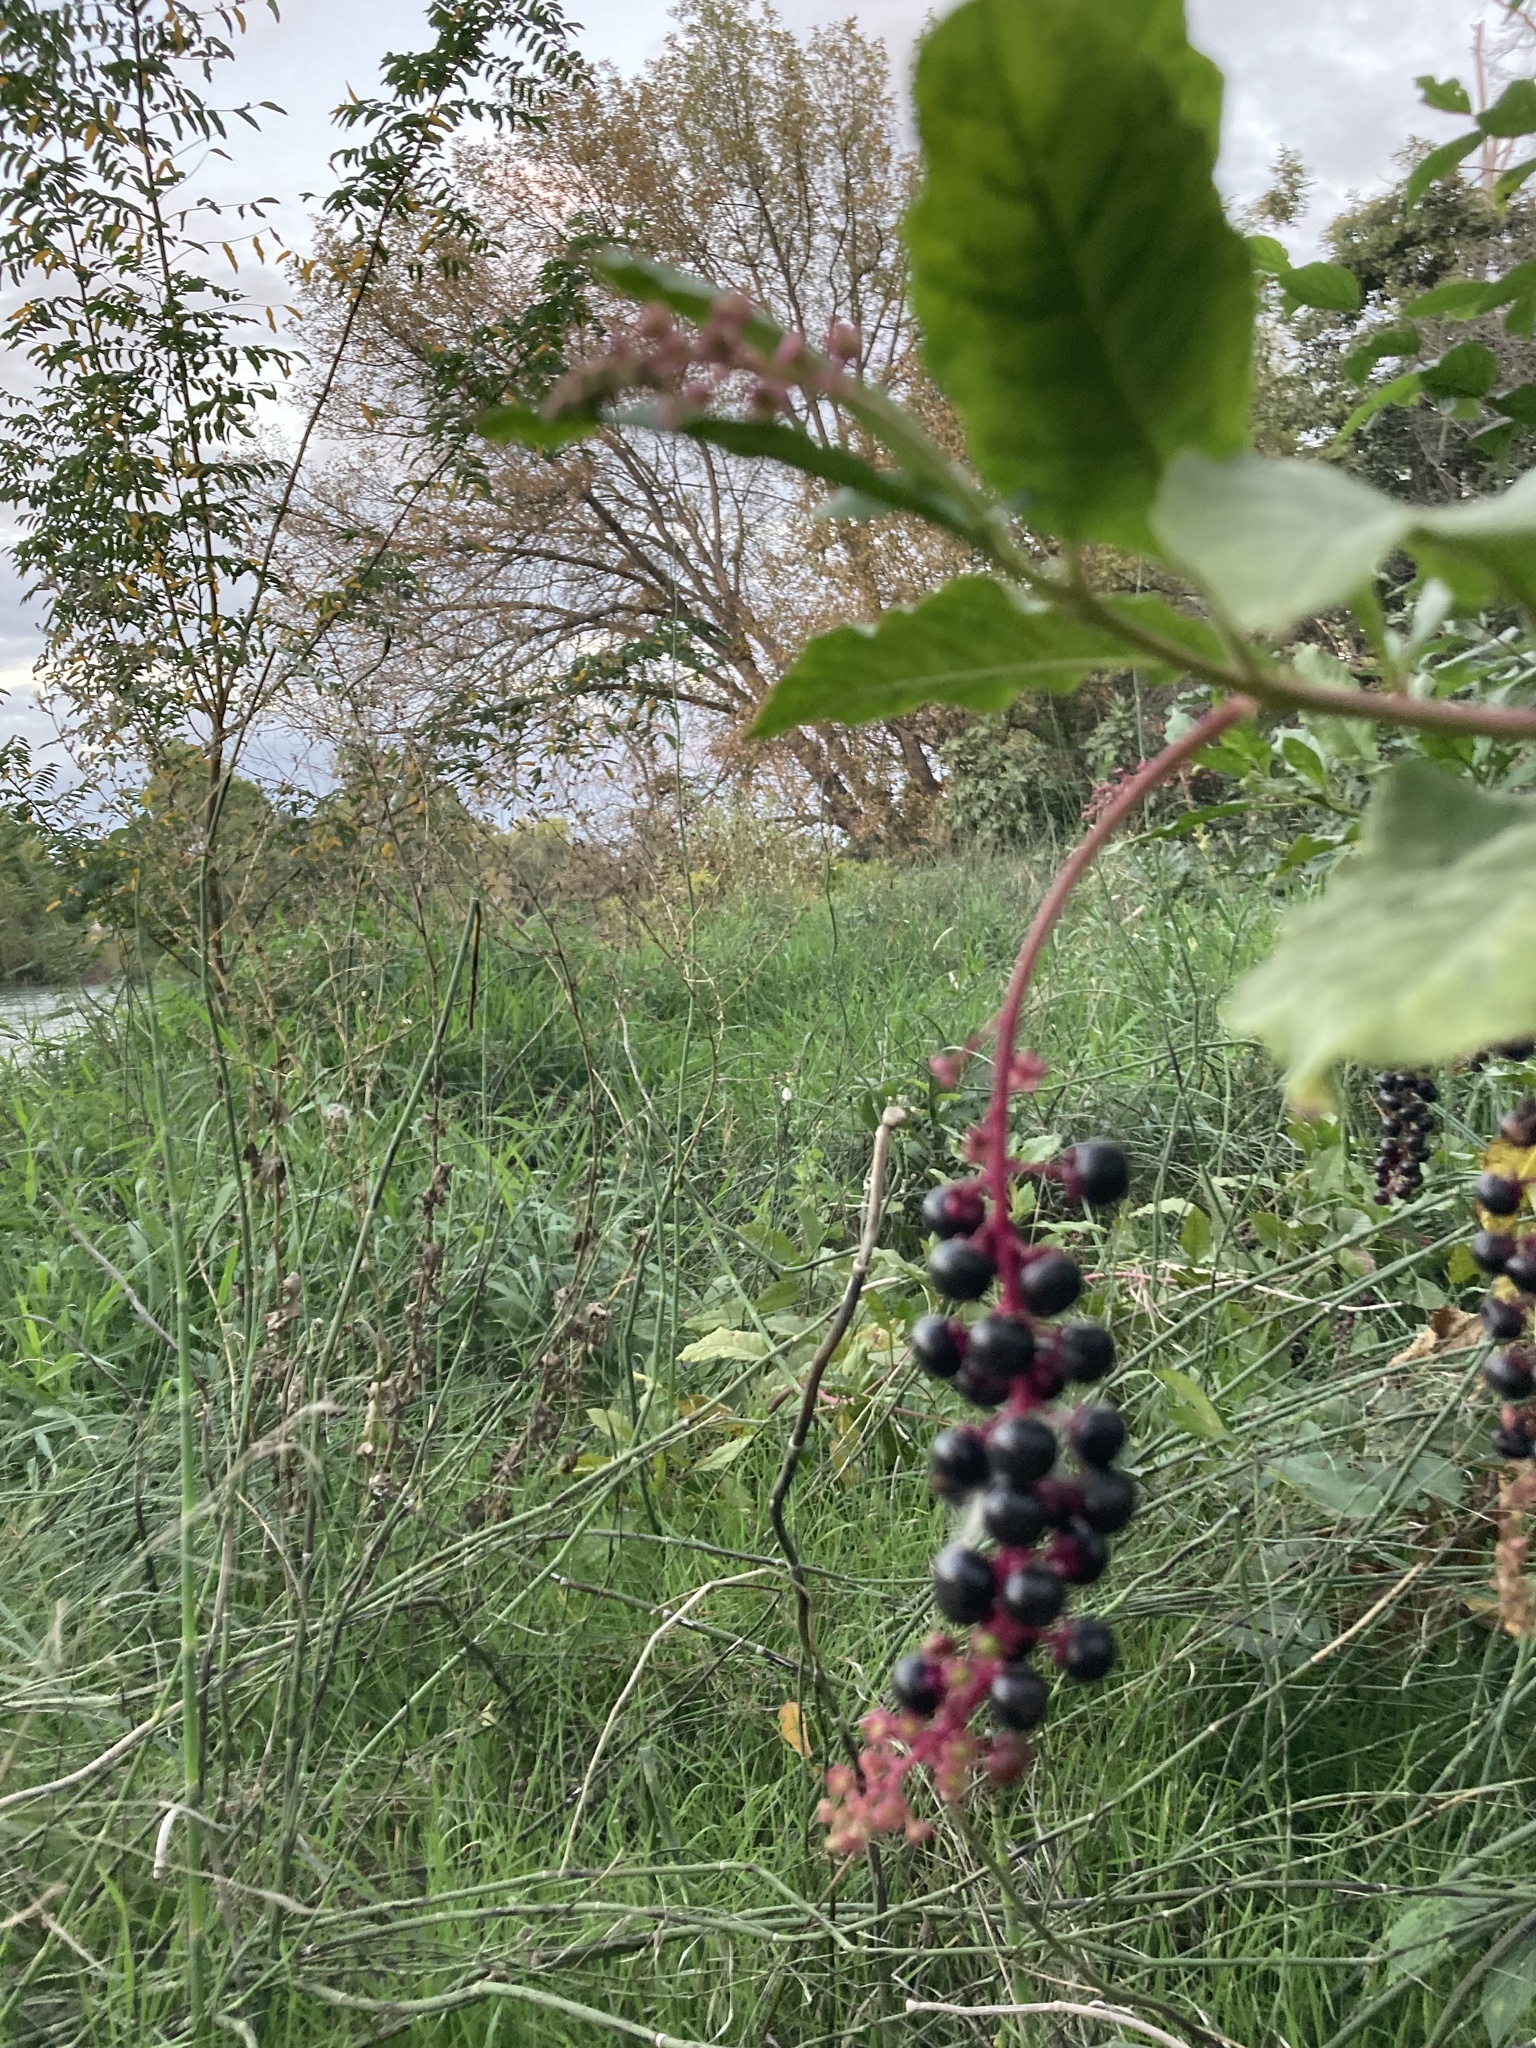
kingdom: Plantae
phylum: Tracheophyta
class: Magnoliopsida
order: Caryophyllales
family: Phytolaccaceae
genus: Phytolacca
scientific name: Phytolacca americana
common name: American pokeweed
